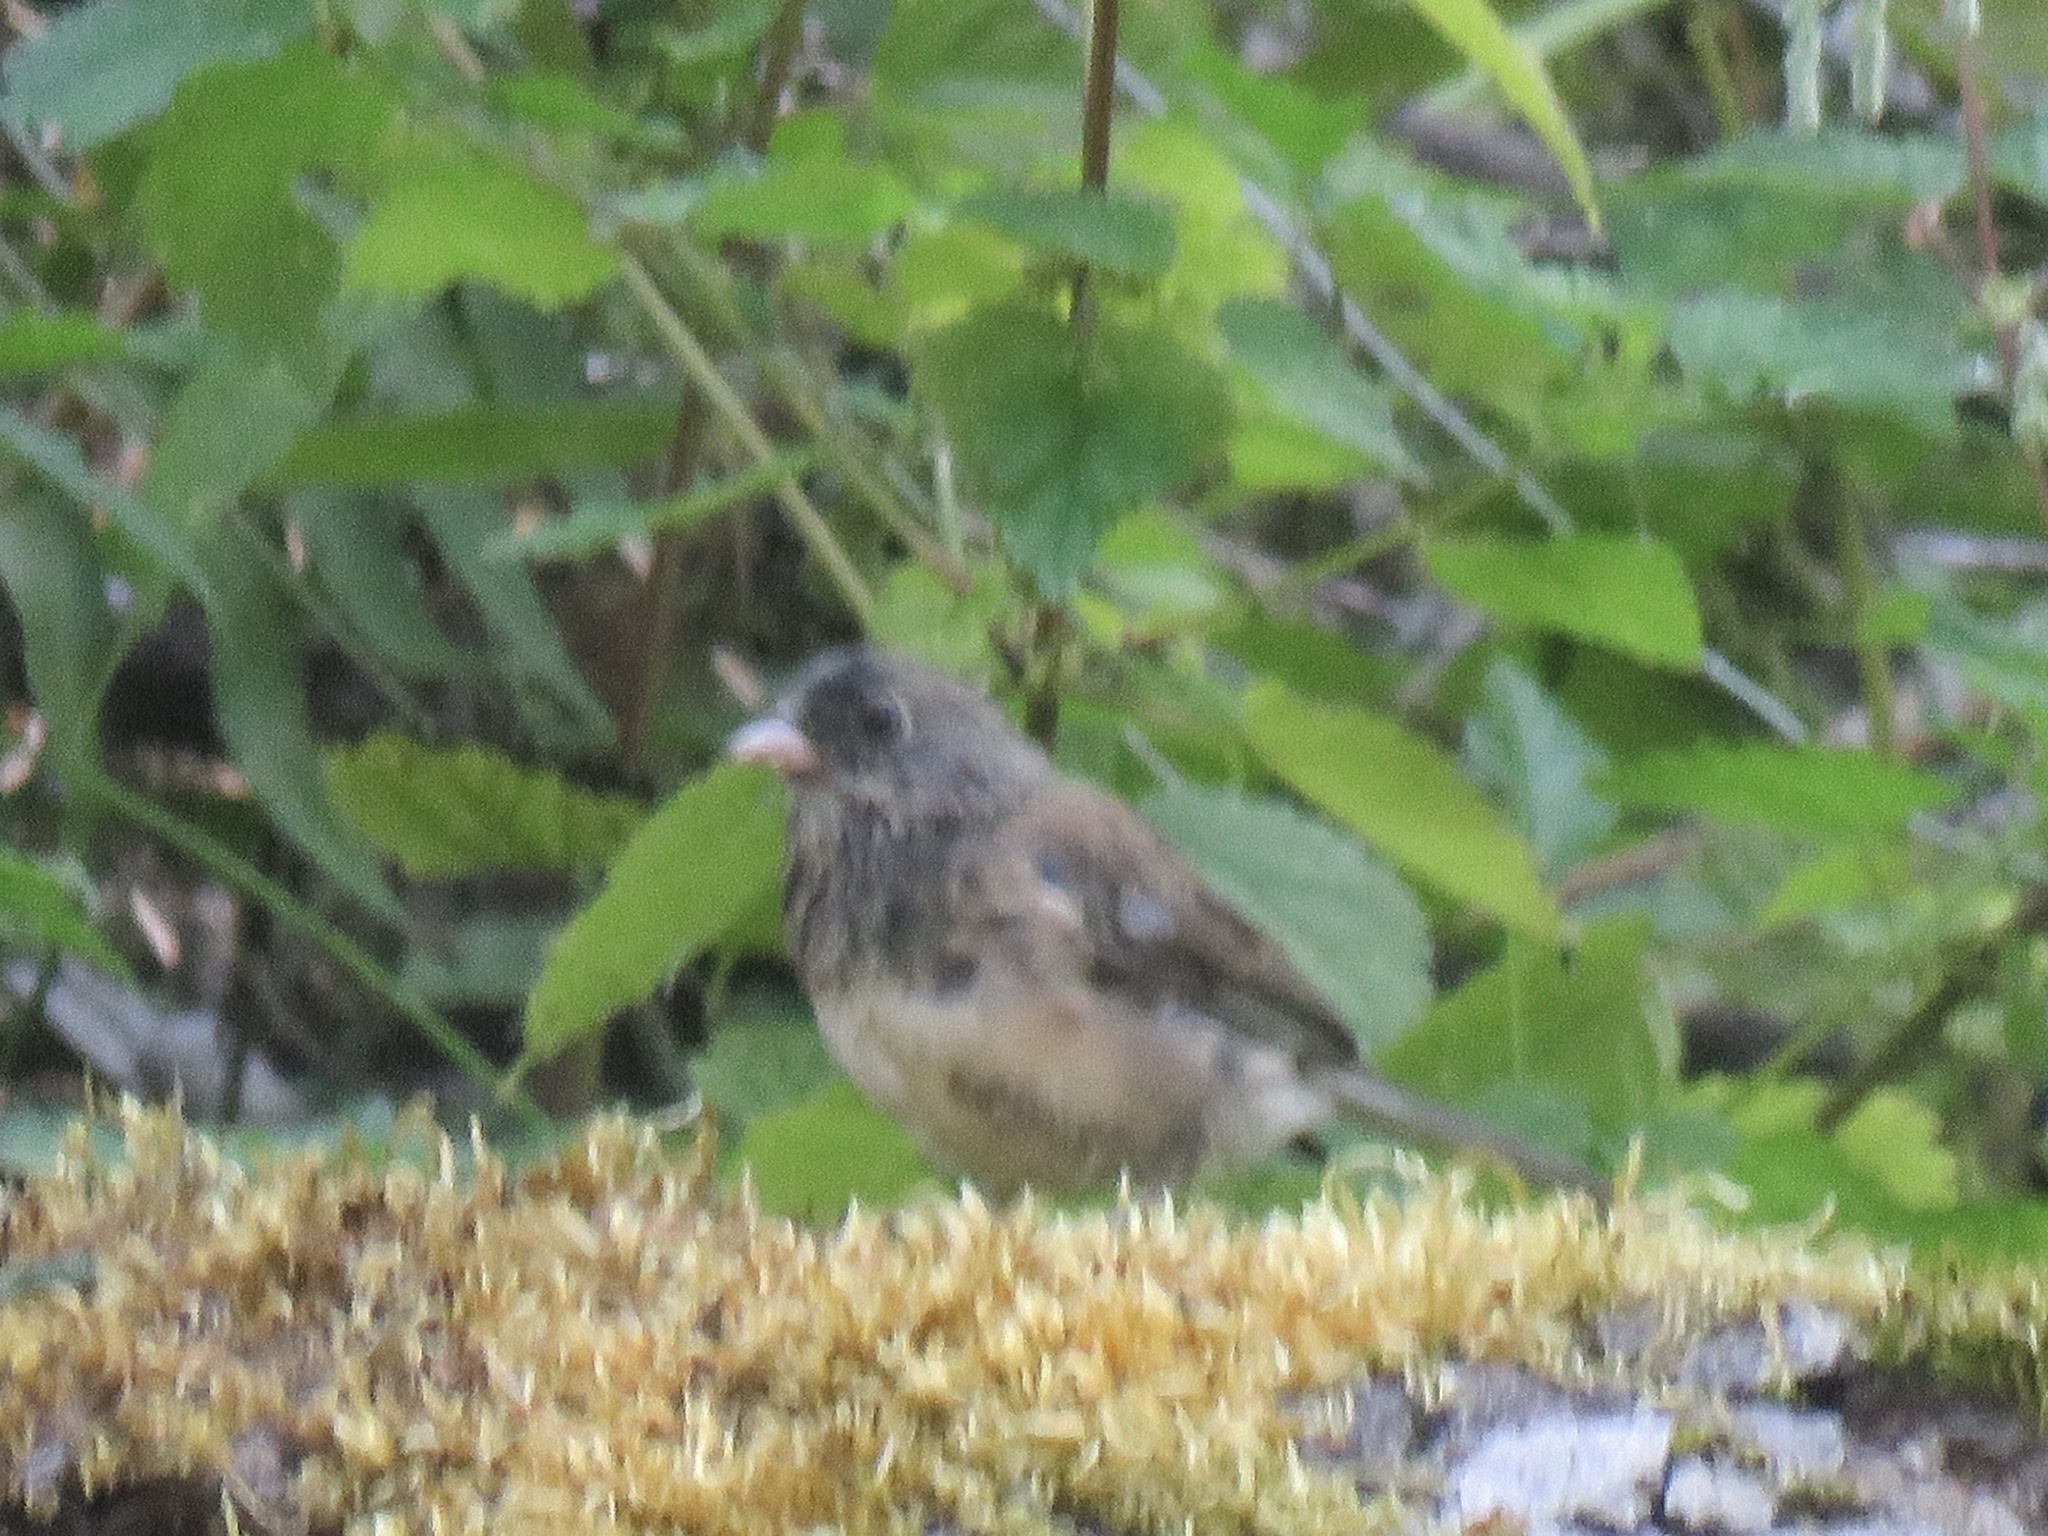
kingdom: Animalia
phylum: Chordata
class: Aves
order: Passeriformes
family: Passerellidae
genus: Junco
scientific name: Junco hyemalis
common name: Dark-eyed junco
